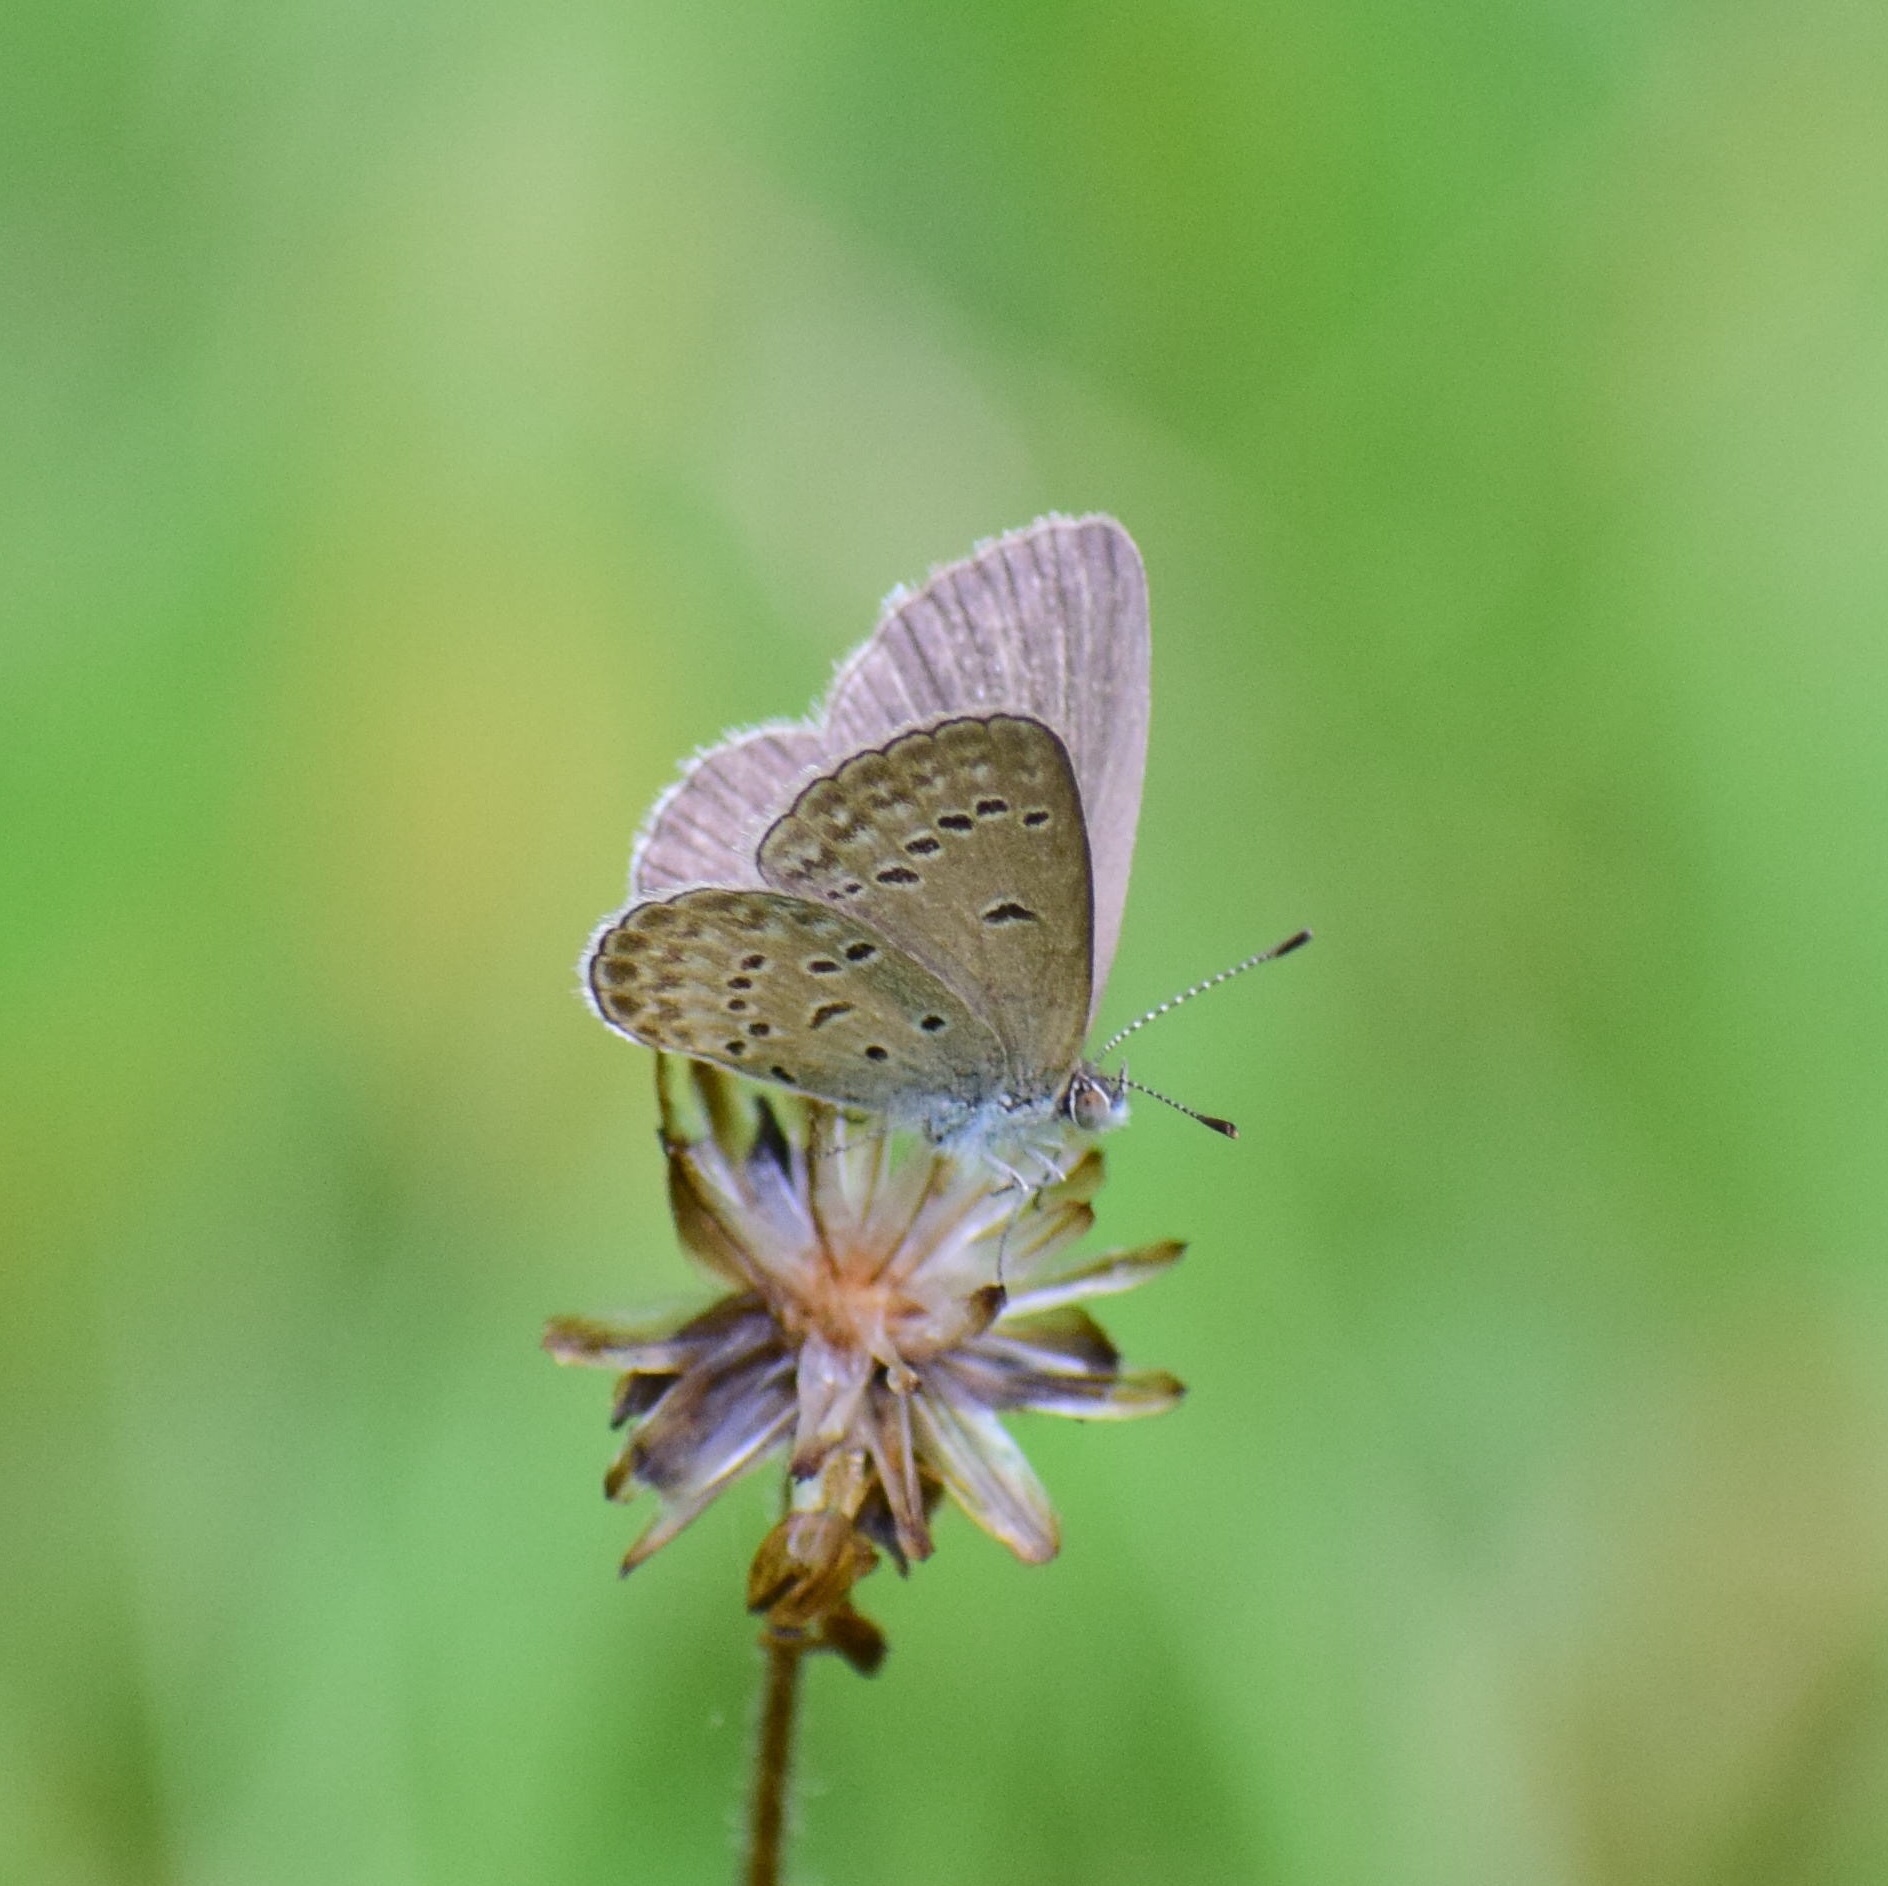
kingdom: Animalia
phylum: Arthropoda
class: Insecta
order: Lepidoptera
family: Lycaenidae
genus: Zizina
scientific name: Zizina antanossa
